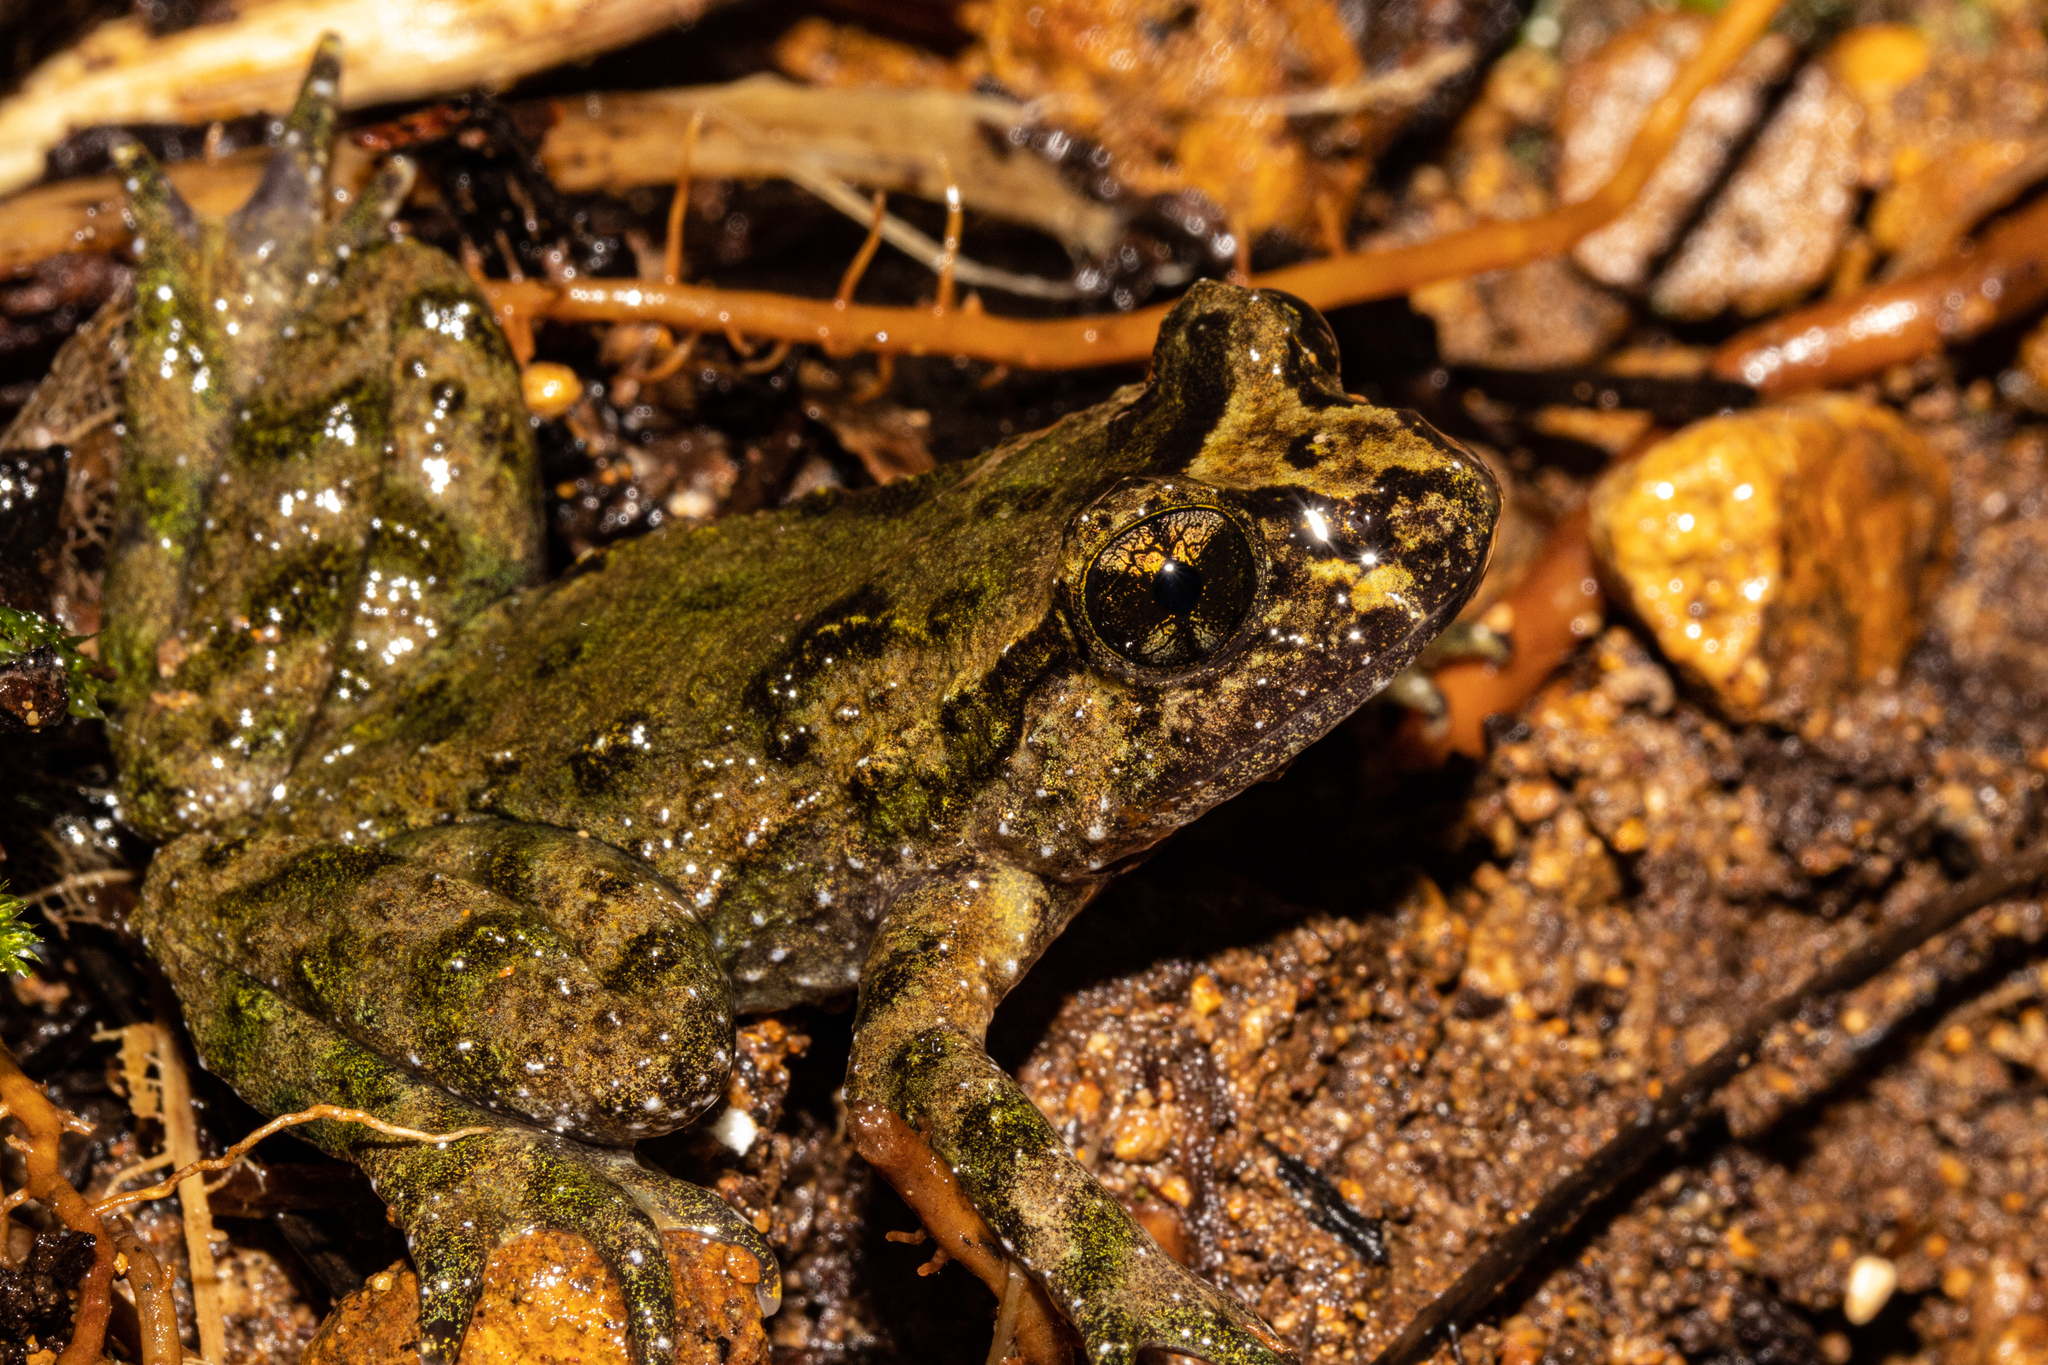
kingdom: Animalia
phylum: Chordata
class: Amphibia
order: Anura
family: Leiopelmatidae
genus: Leiopelma
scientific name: Leiopelma hochstetteri
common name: Hochstetters new zealand frog
